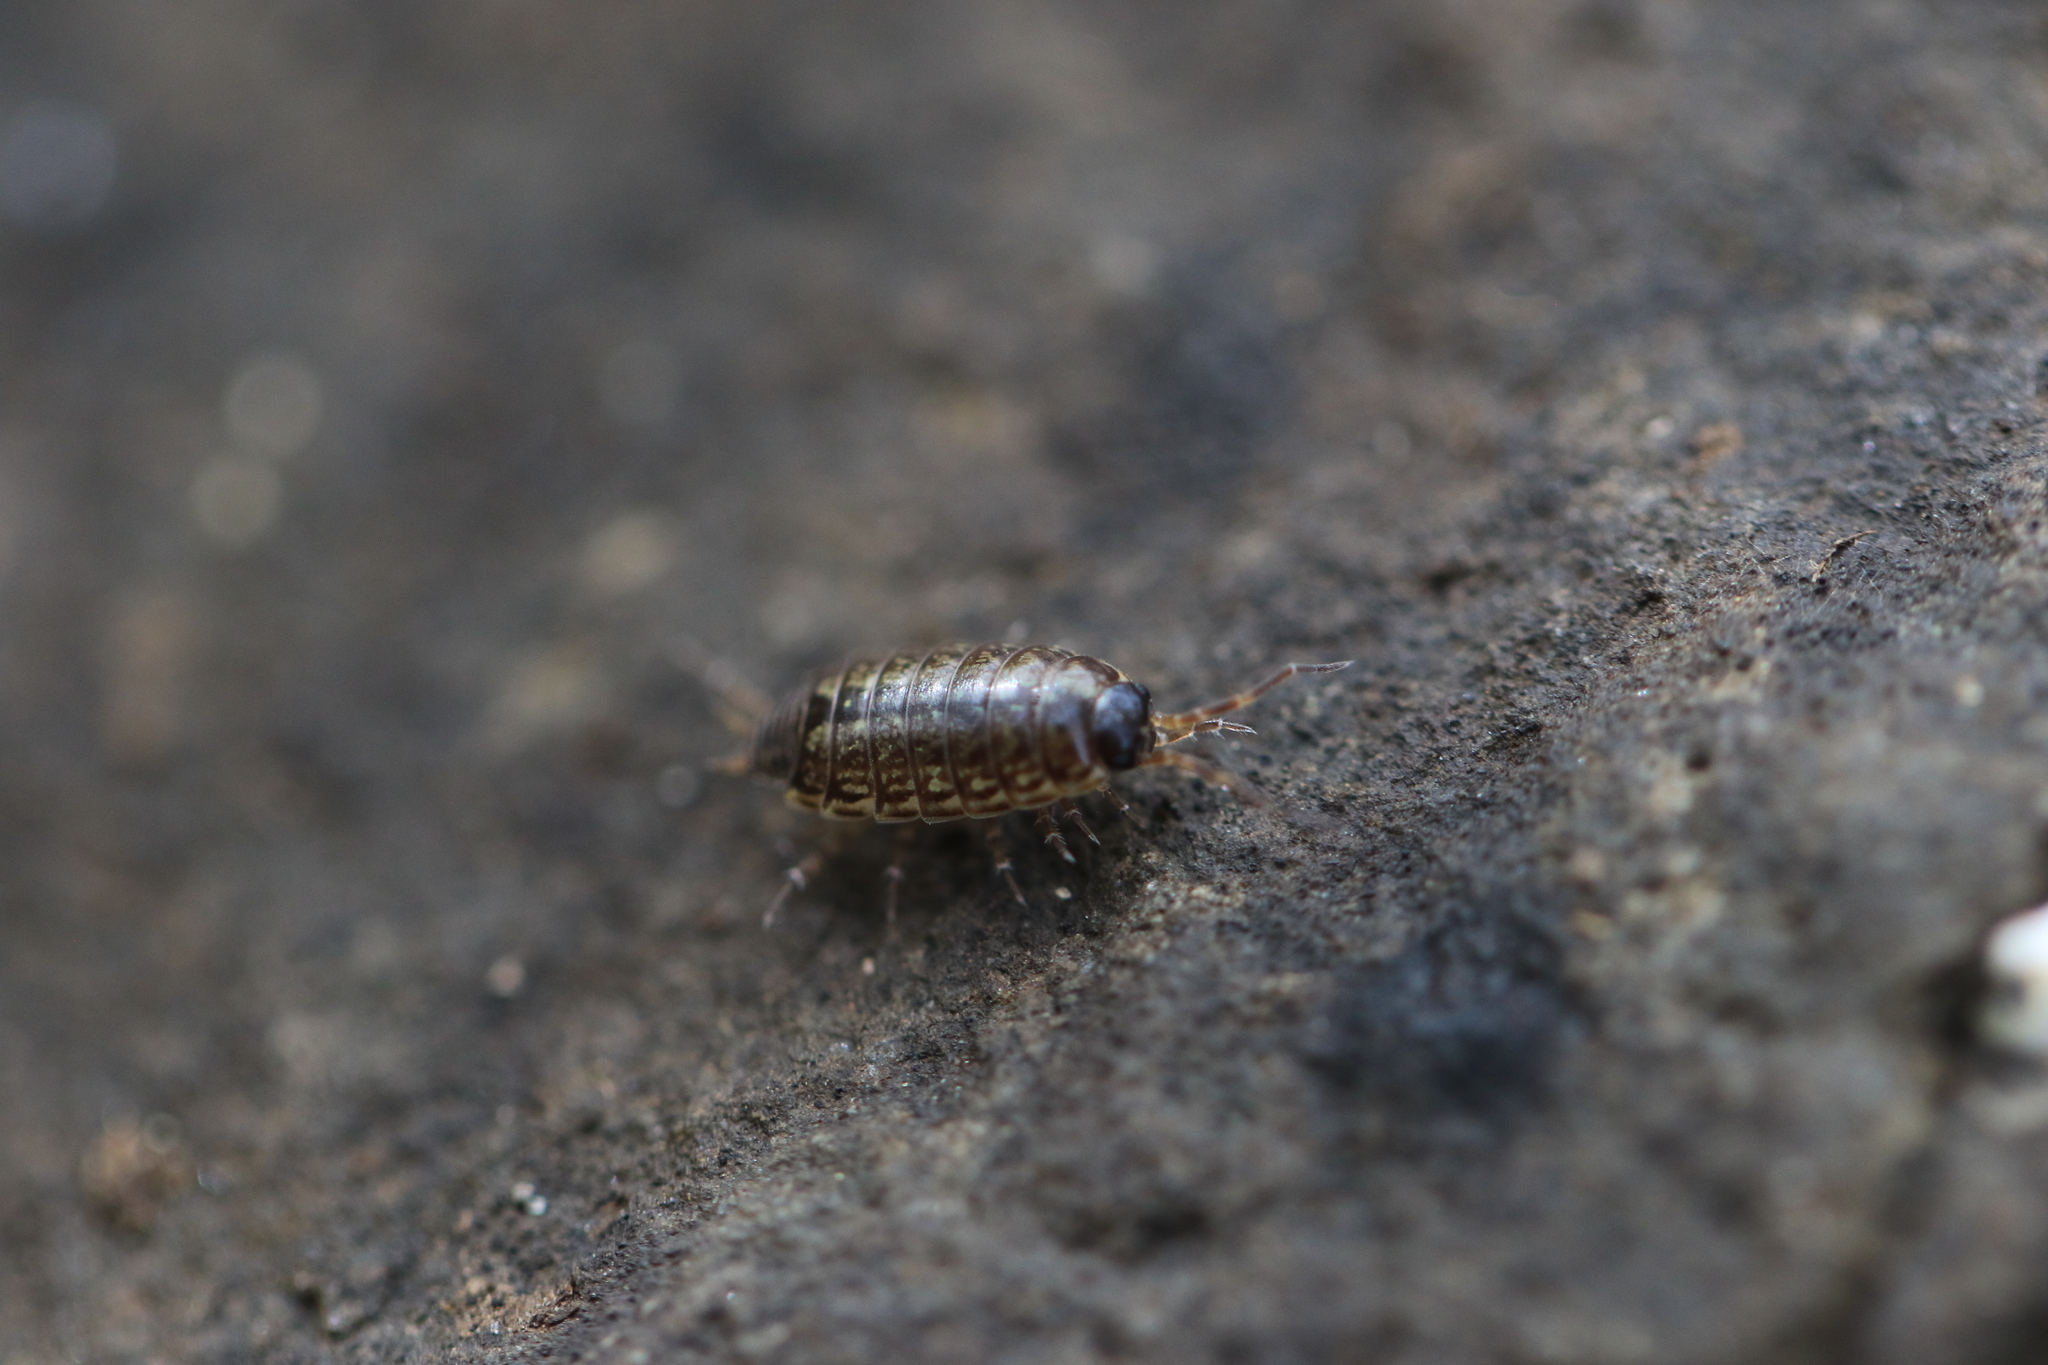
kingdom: Animalia
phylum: Arthropoda
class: Malacostraca
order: Isopoda
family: Philosciidae
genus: Philoscia
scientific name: Philoscia muscorum
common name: Common striped woodlouse
